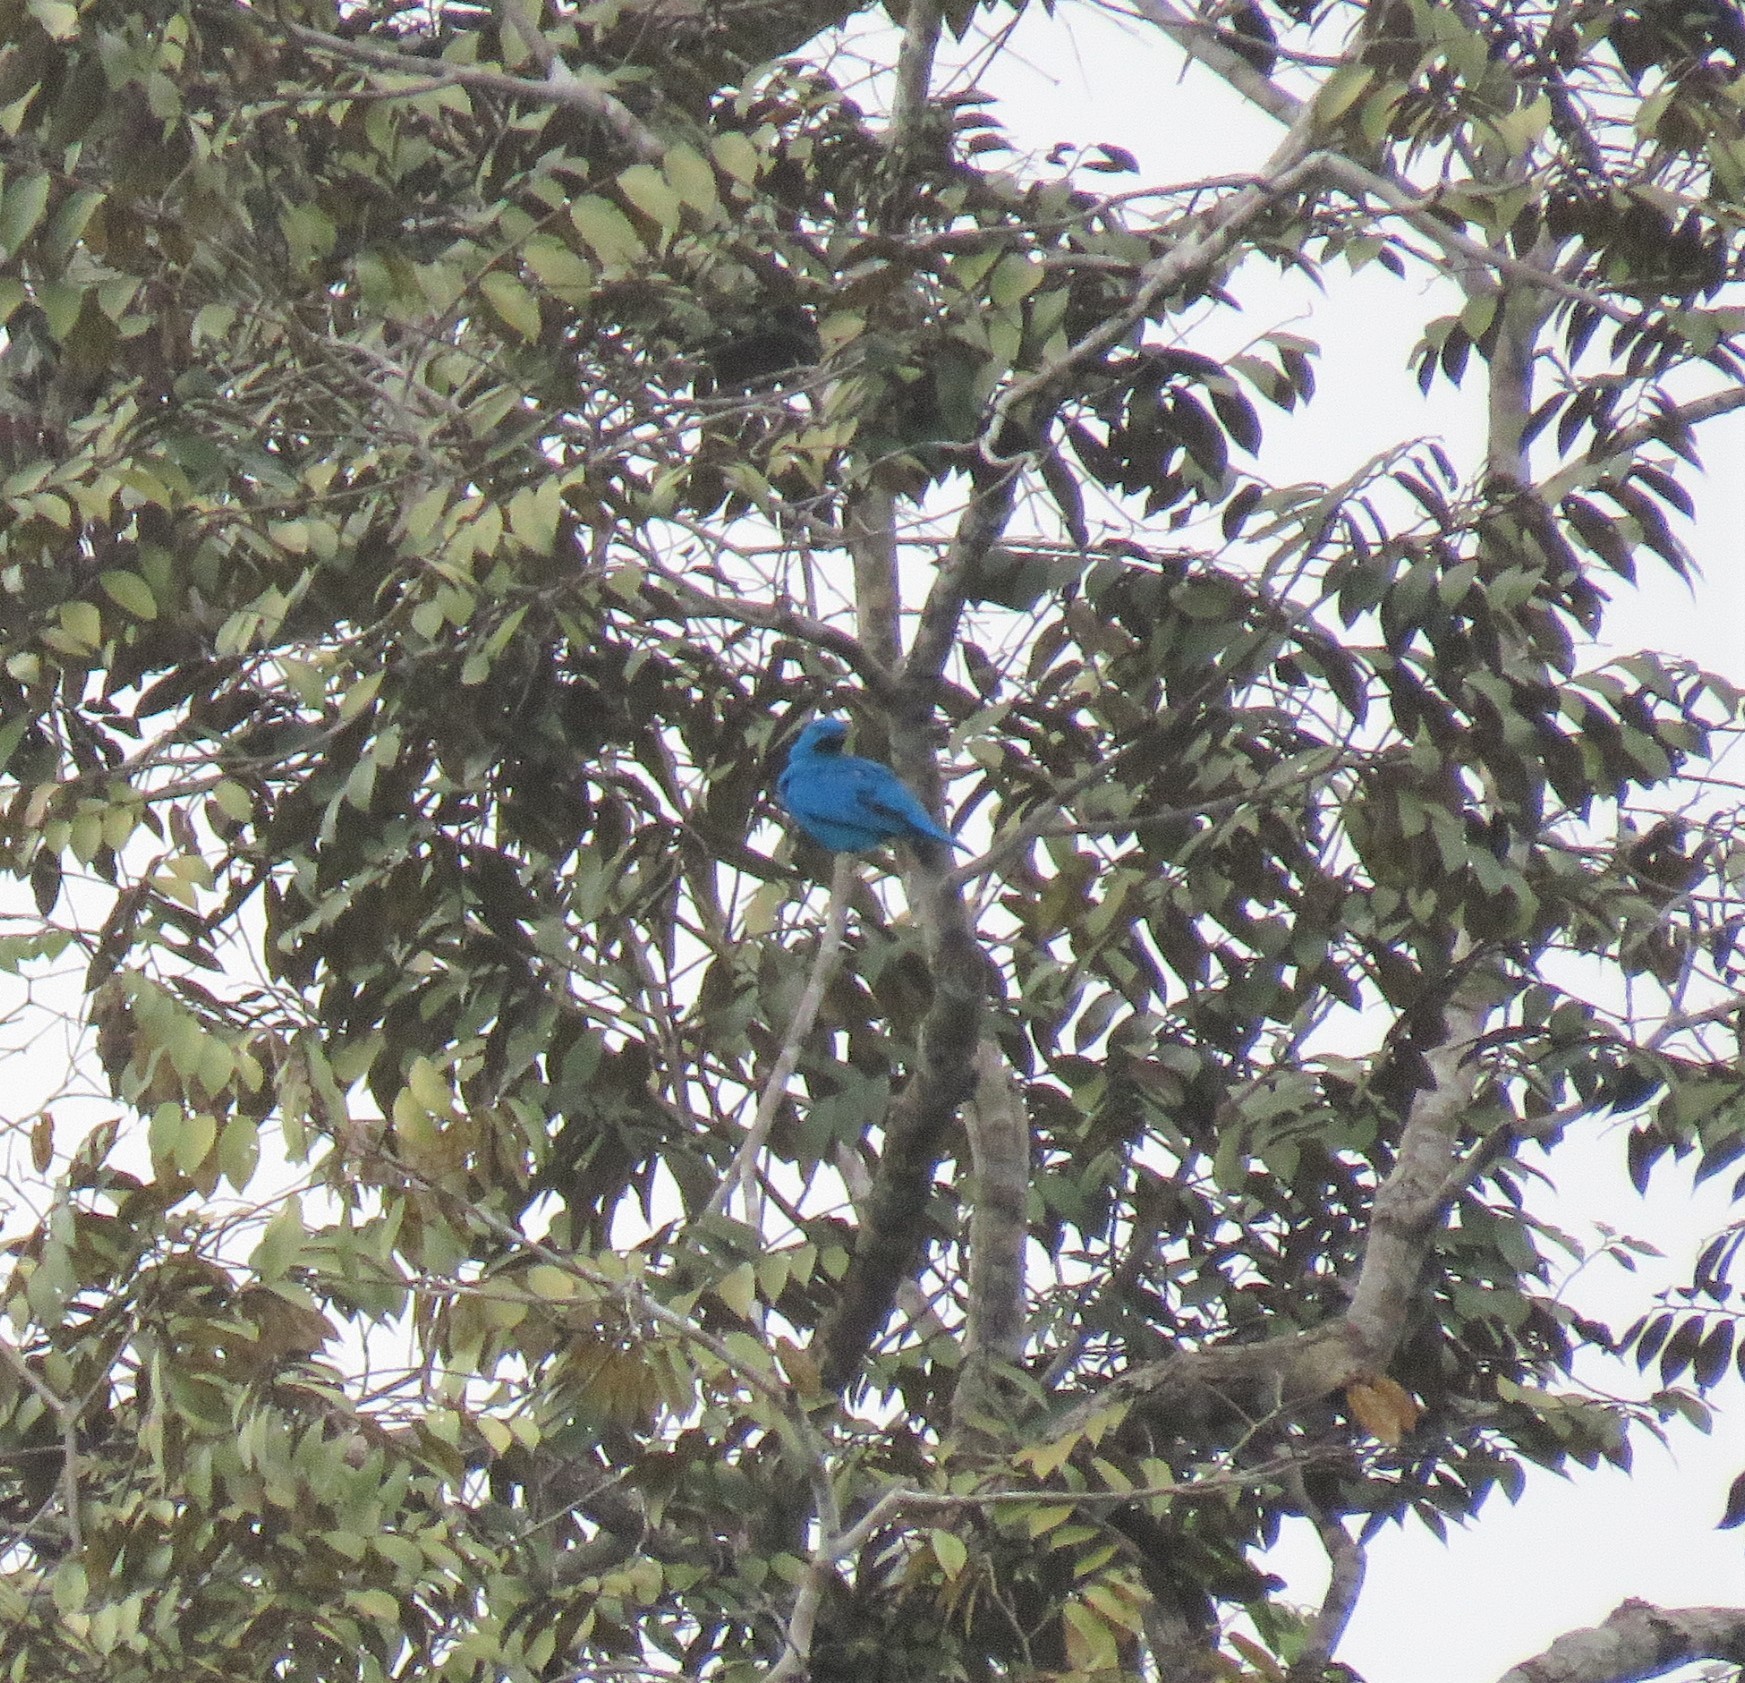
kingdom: Animalia
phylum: Chordata
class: Aves
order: Passeriformes
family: Cotingidae
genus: Cotinga
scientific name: Cotinga maynana
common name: Plum-throated cotinga
